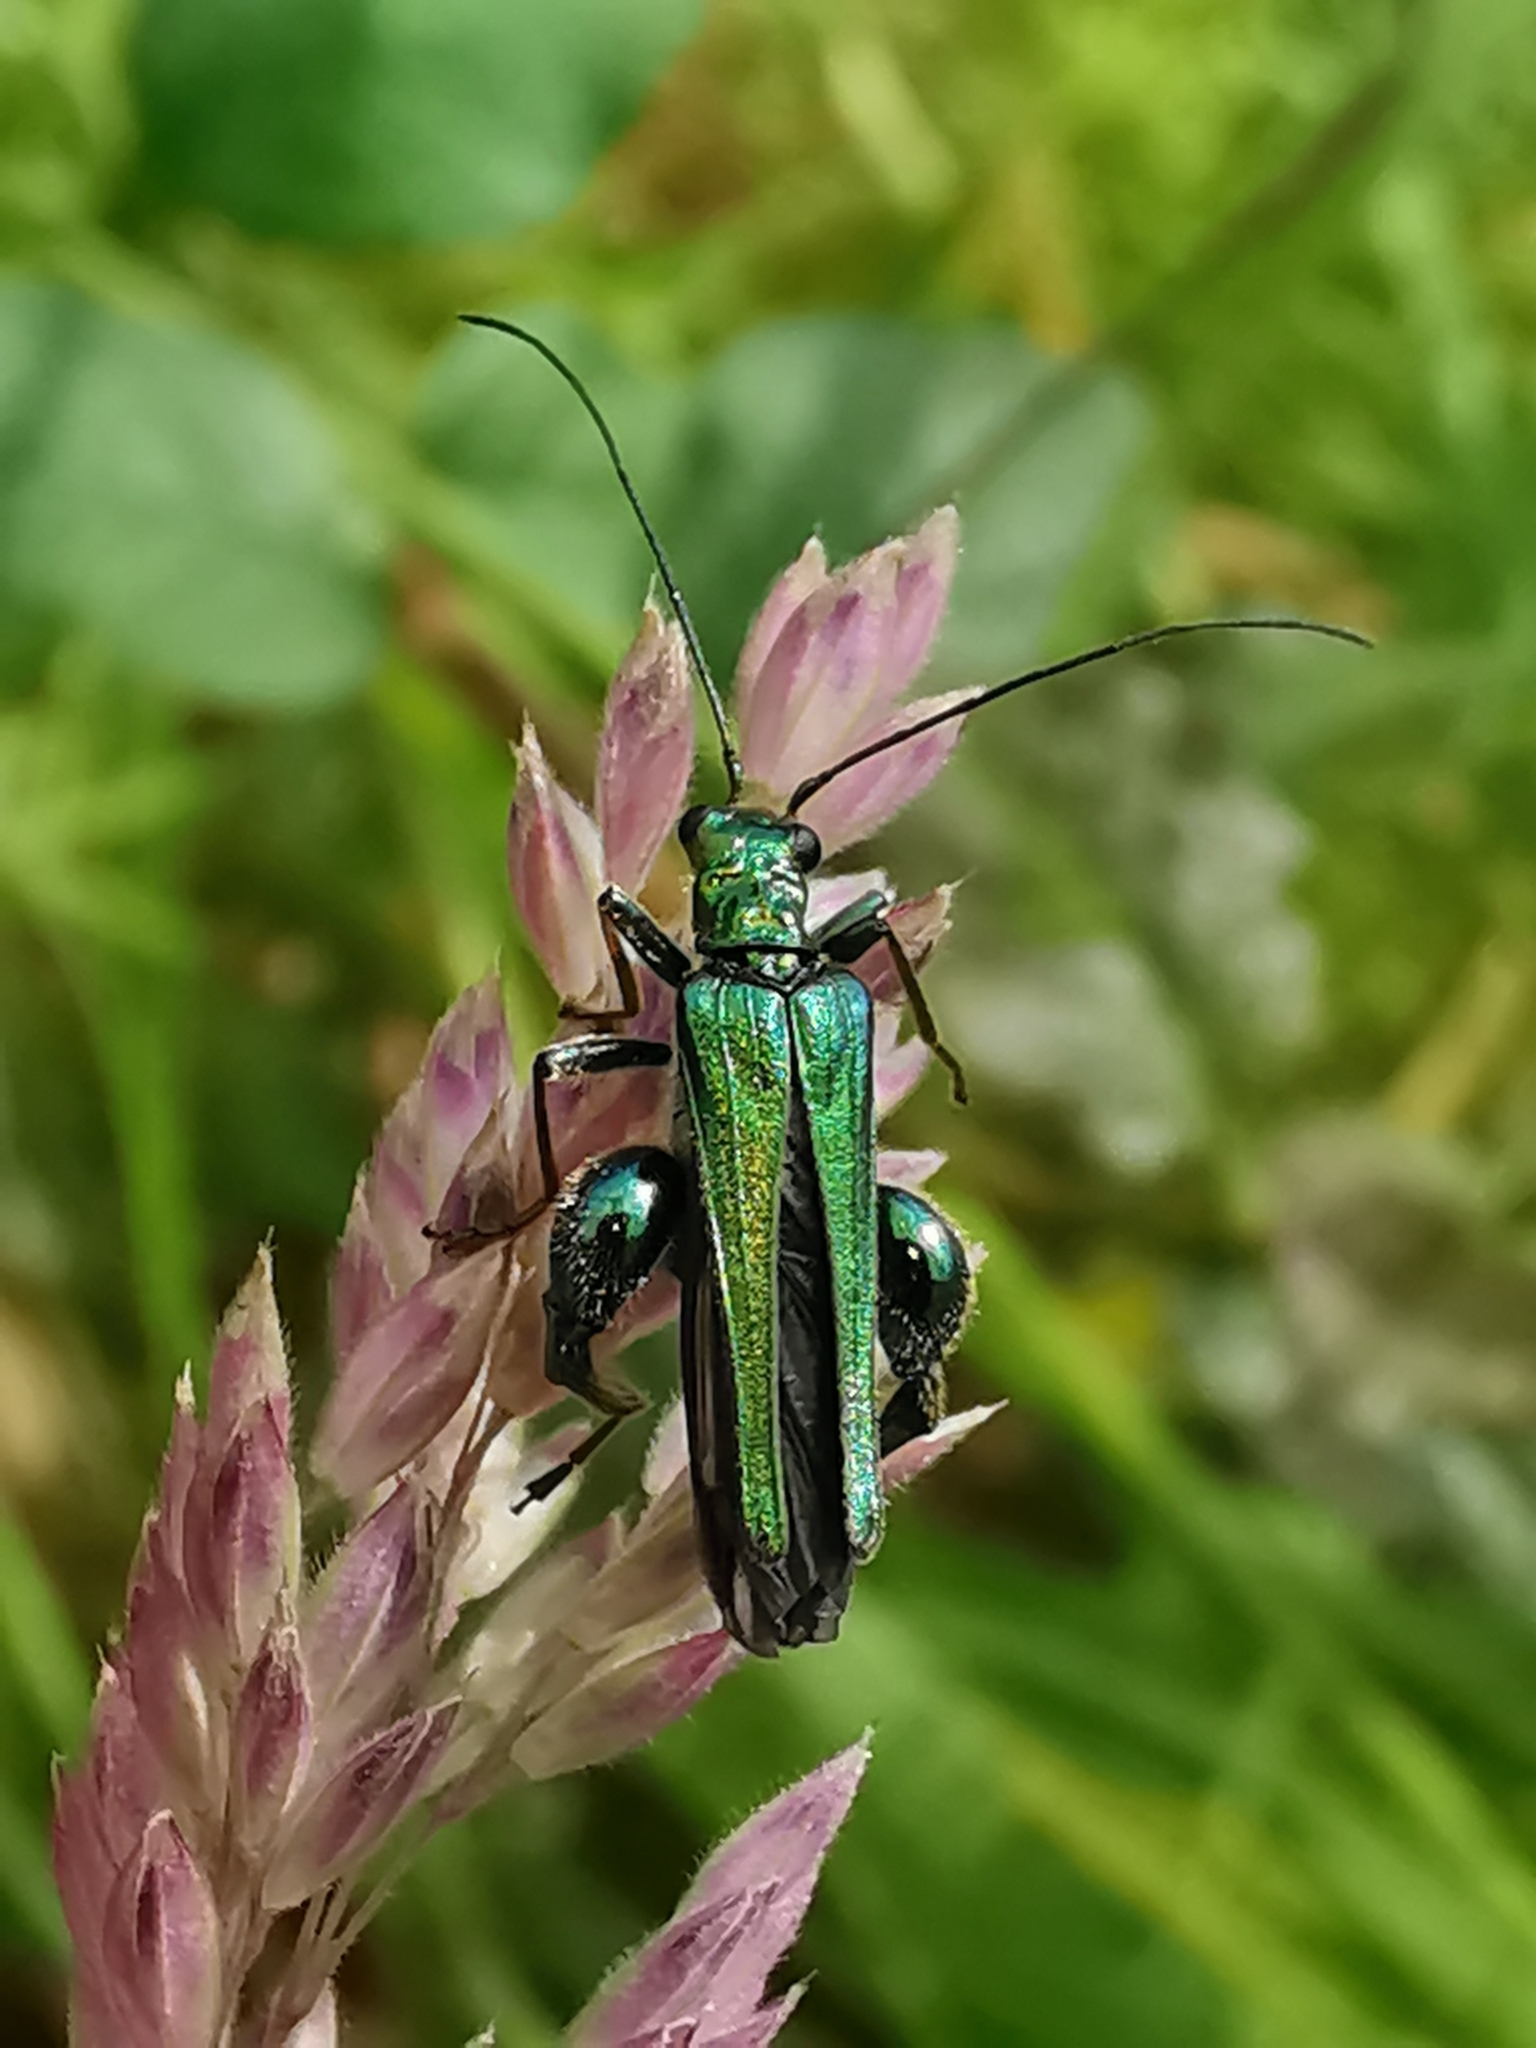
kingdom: Animalia
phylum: Arthropoda
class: Insecta
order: Coleoptera
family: Oedemeridae
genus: Oedemera
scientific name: Oedemera nobilis
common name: Swollen-thighed beetle
